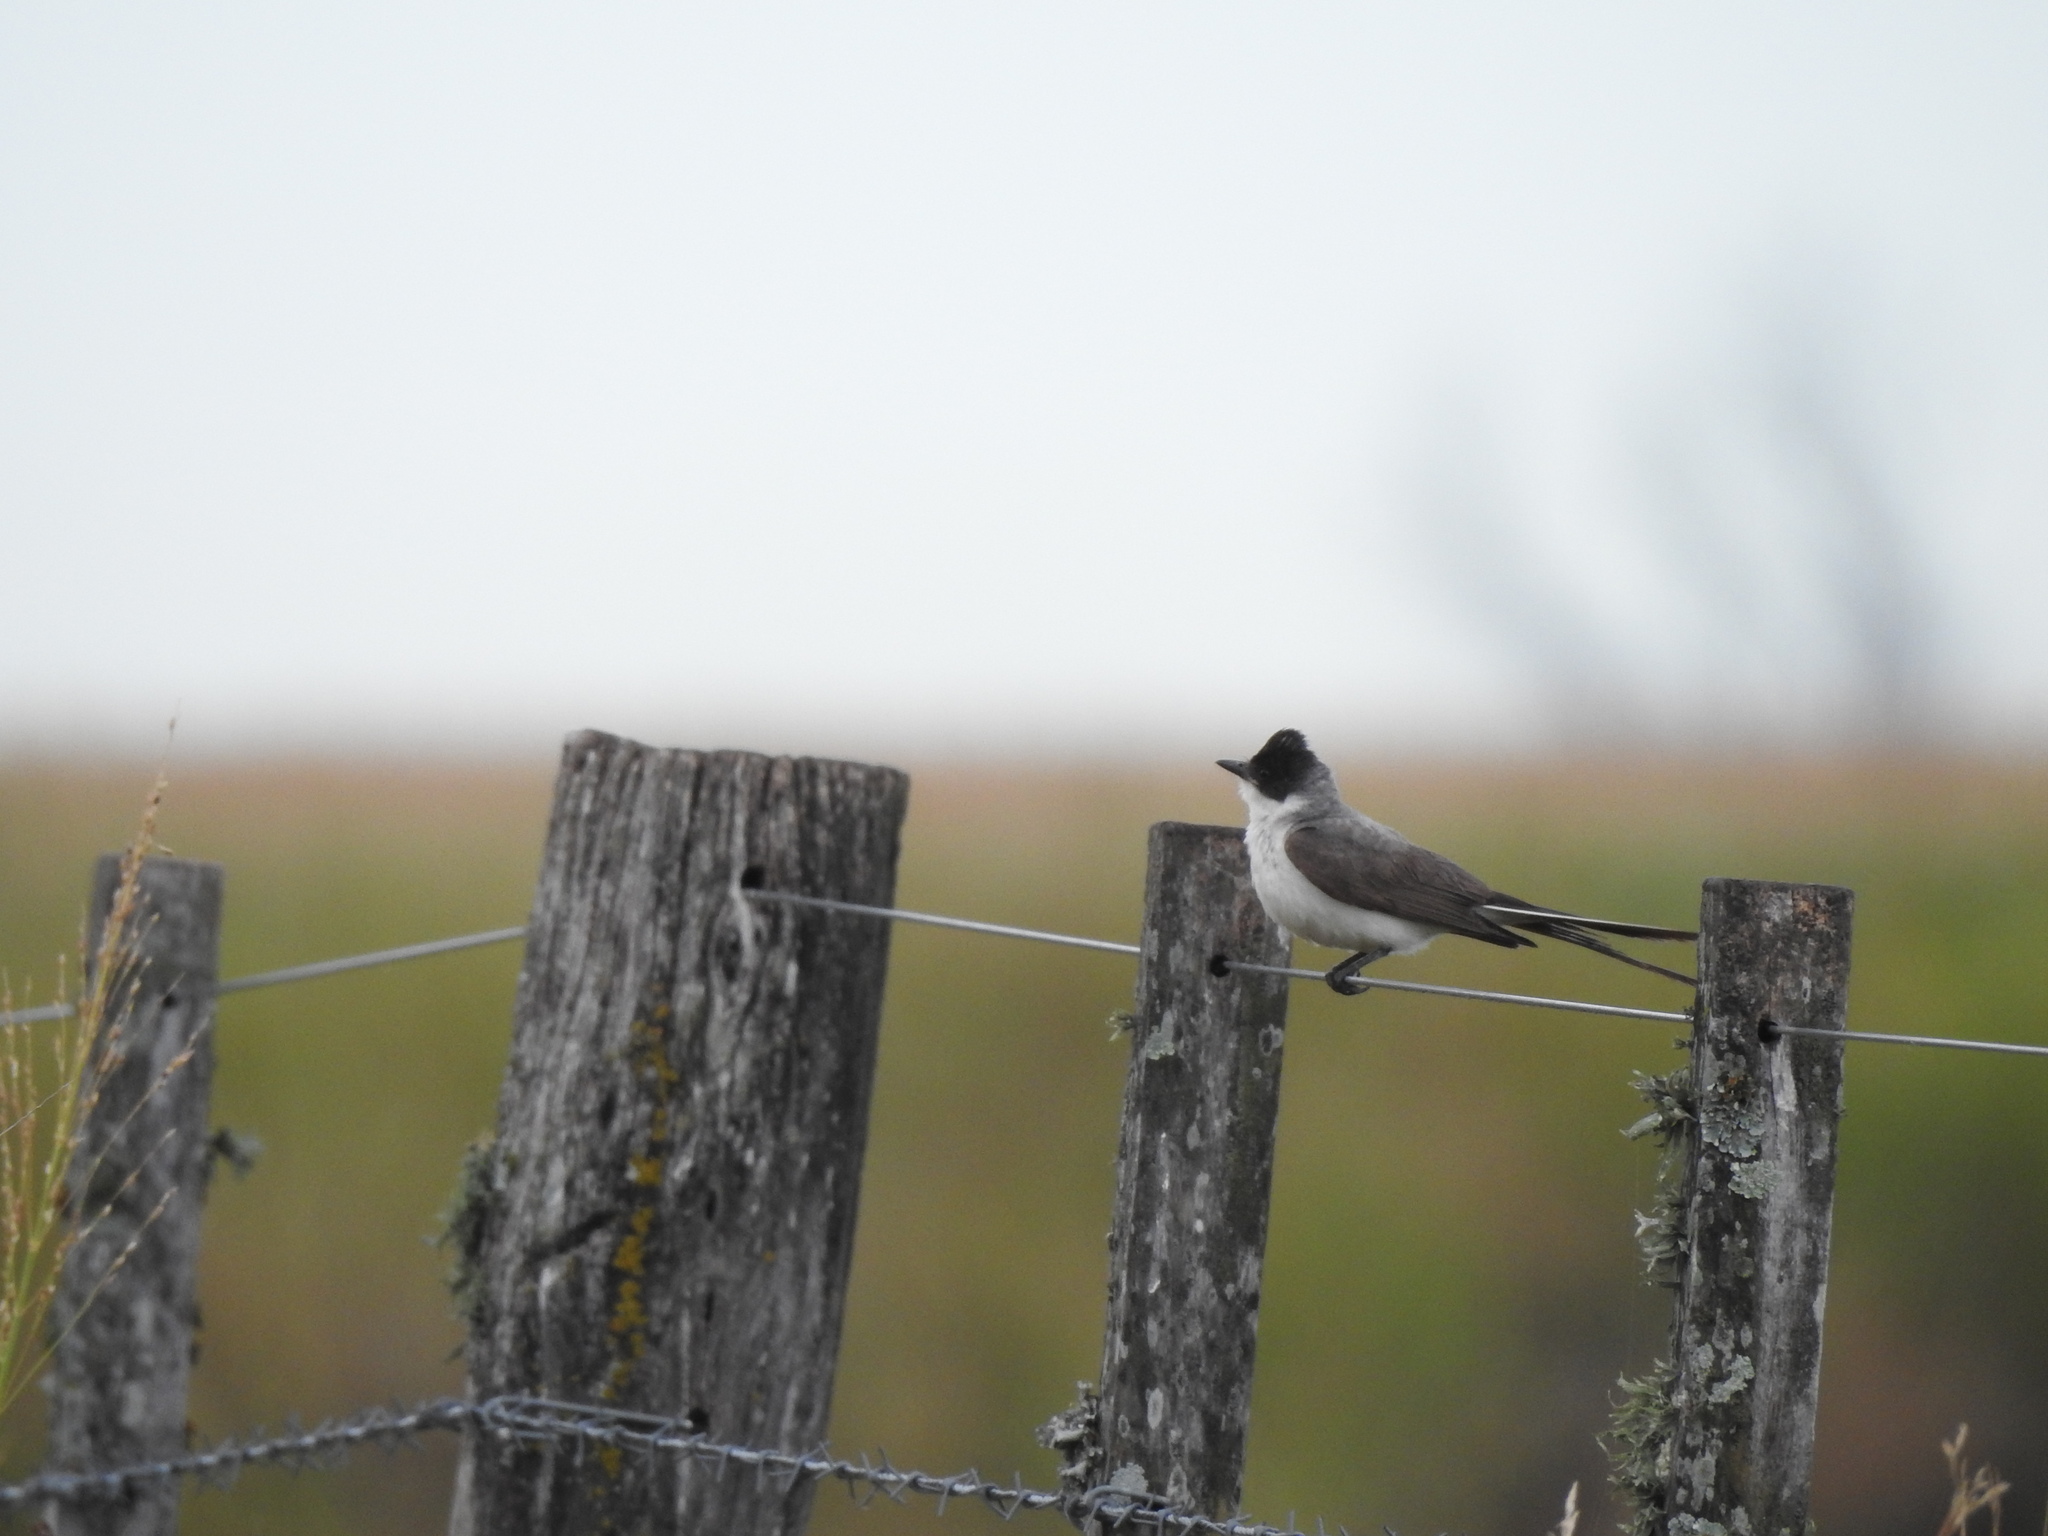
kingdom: Animalia
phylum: Chordata
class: Aves
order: Passeriformes
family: Tyrannidae
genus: Tyrannus
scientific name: Tyrannus savana
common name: Fork-tailed flycatcher
